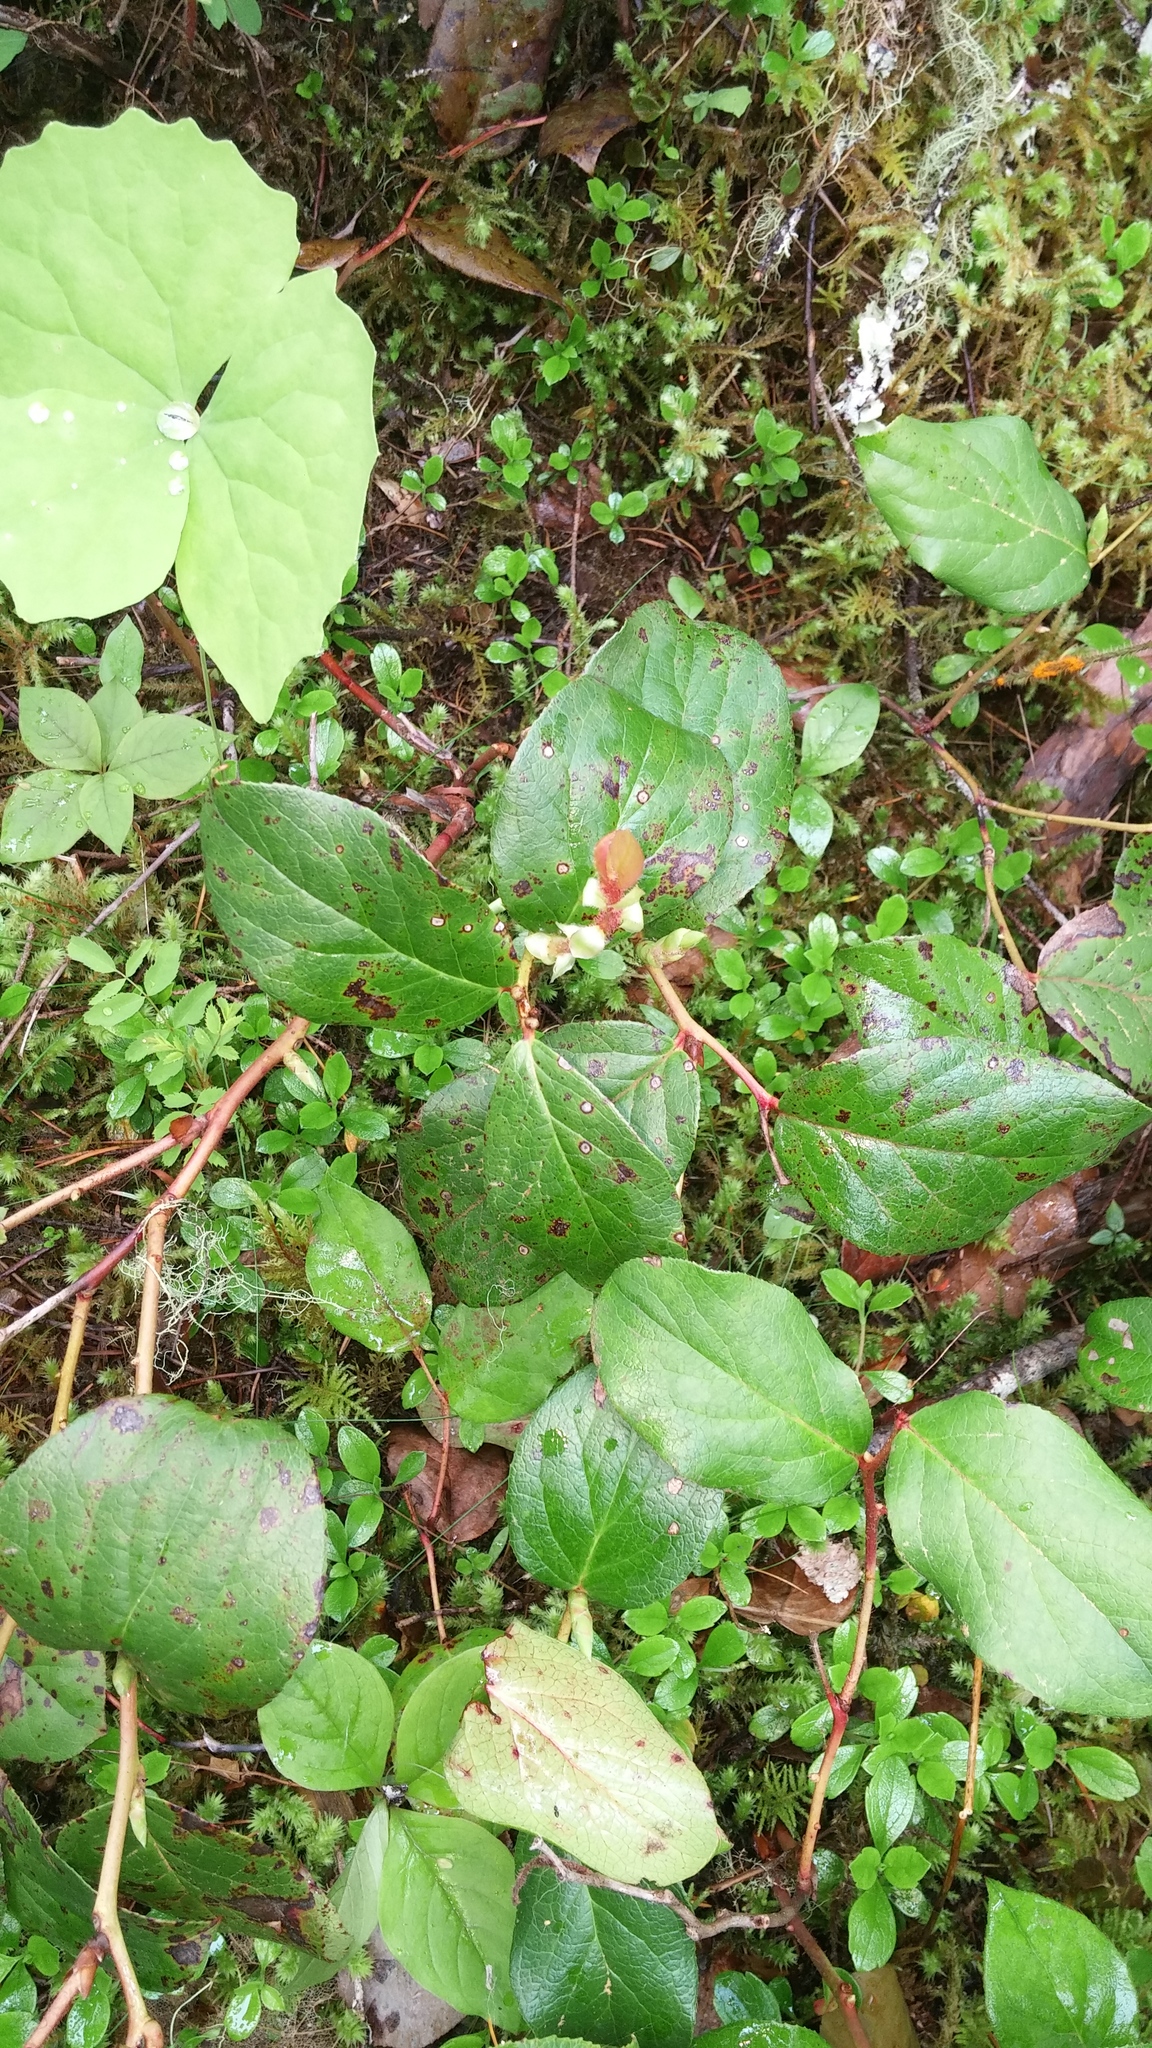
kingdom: Plantae
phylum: Tracheophyta
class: Magnoliopsida
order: Ericales
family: Ericaceae
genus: Gaultheria
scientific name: Gaultheria shallon
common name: Shallon
